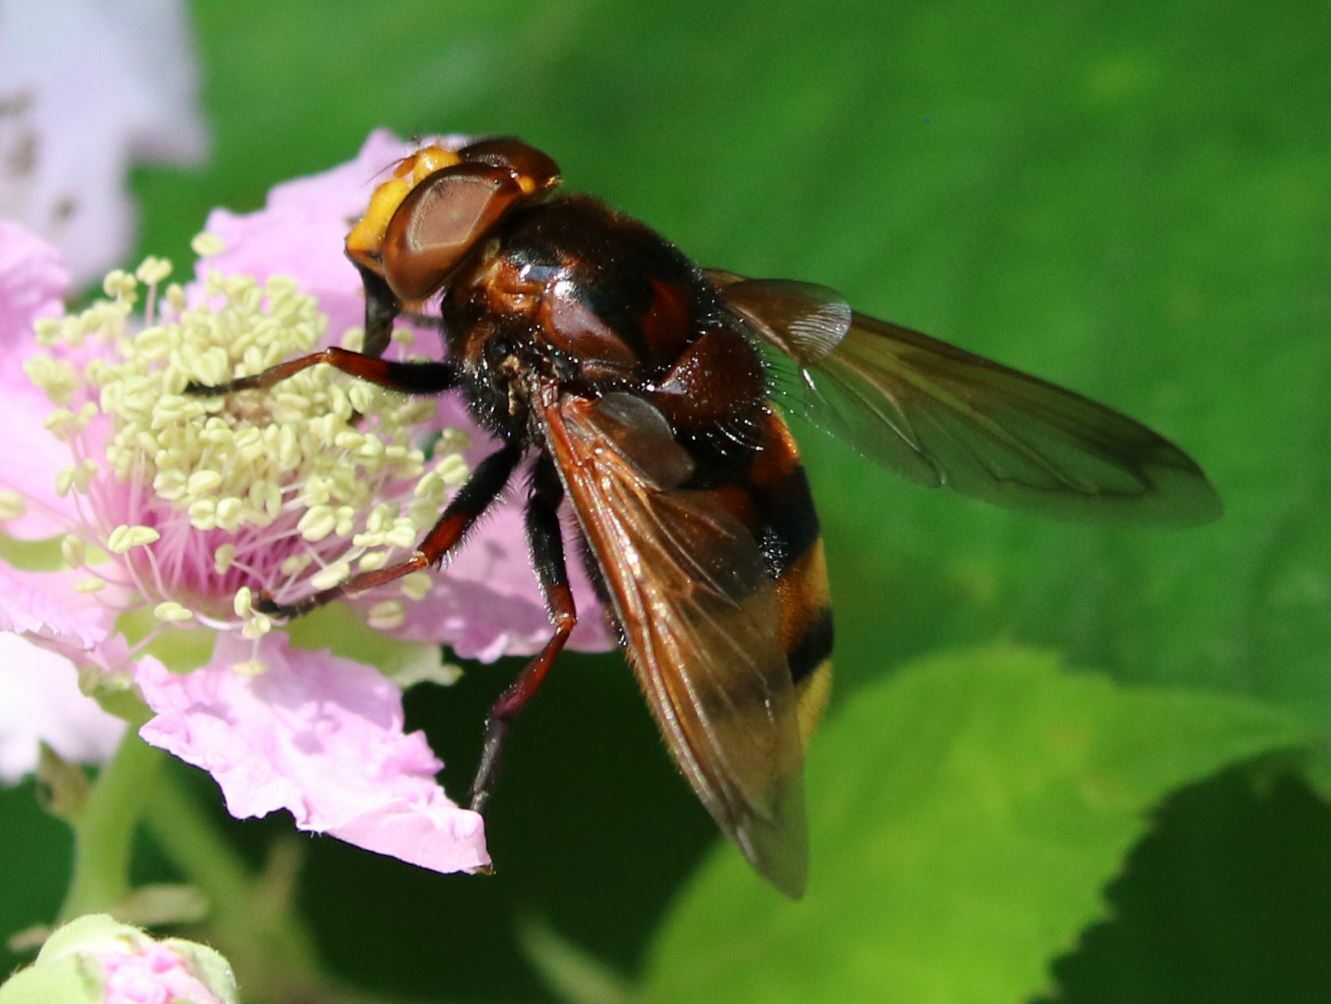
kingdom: Animalia
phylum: Arthropoda
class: Insecta
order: Diptera
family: Syrphidae
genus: Volucella
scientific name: Volucella zonaria
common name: Hornet hoverfly
